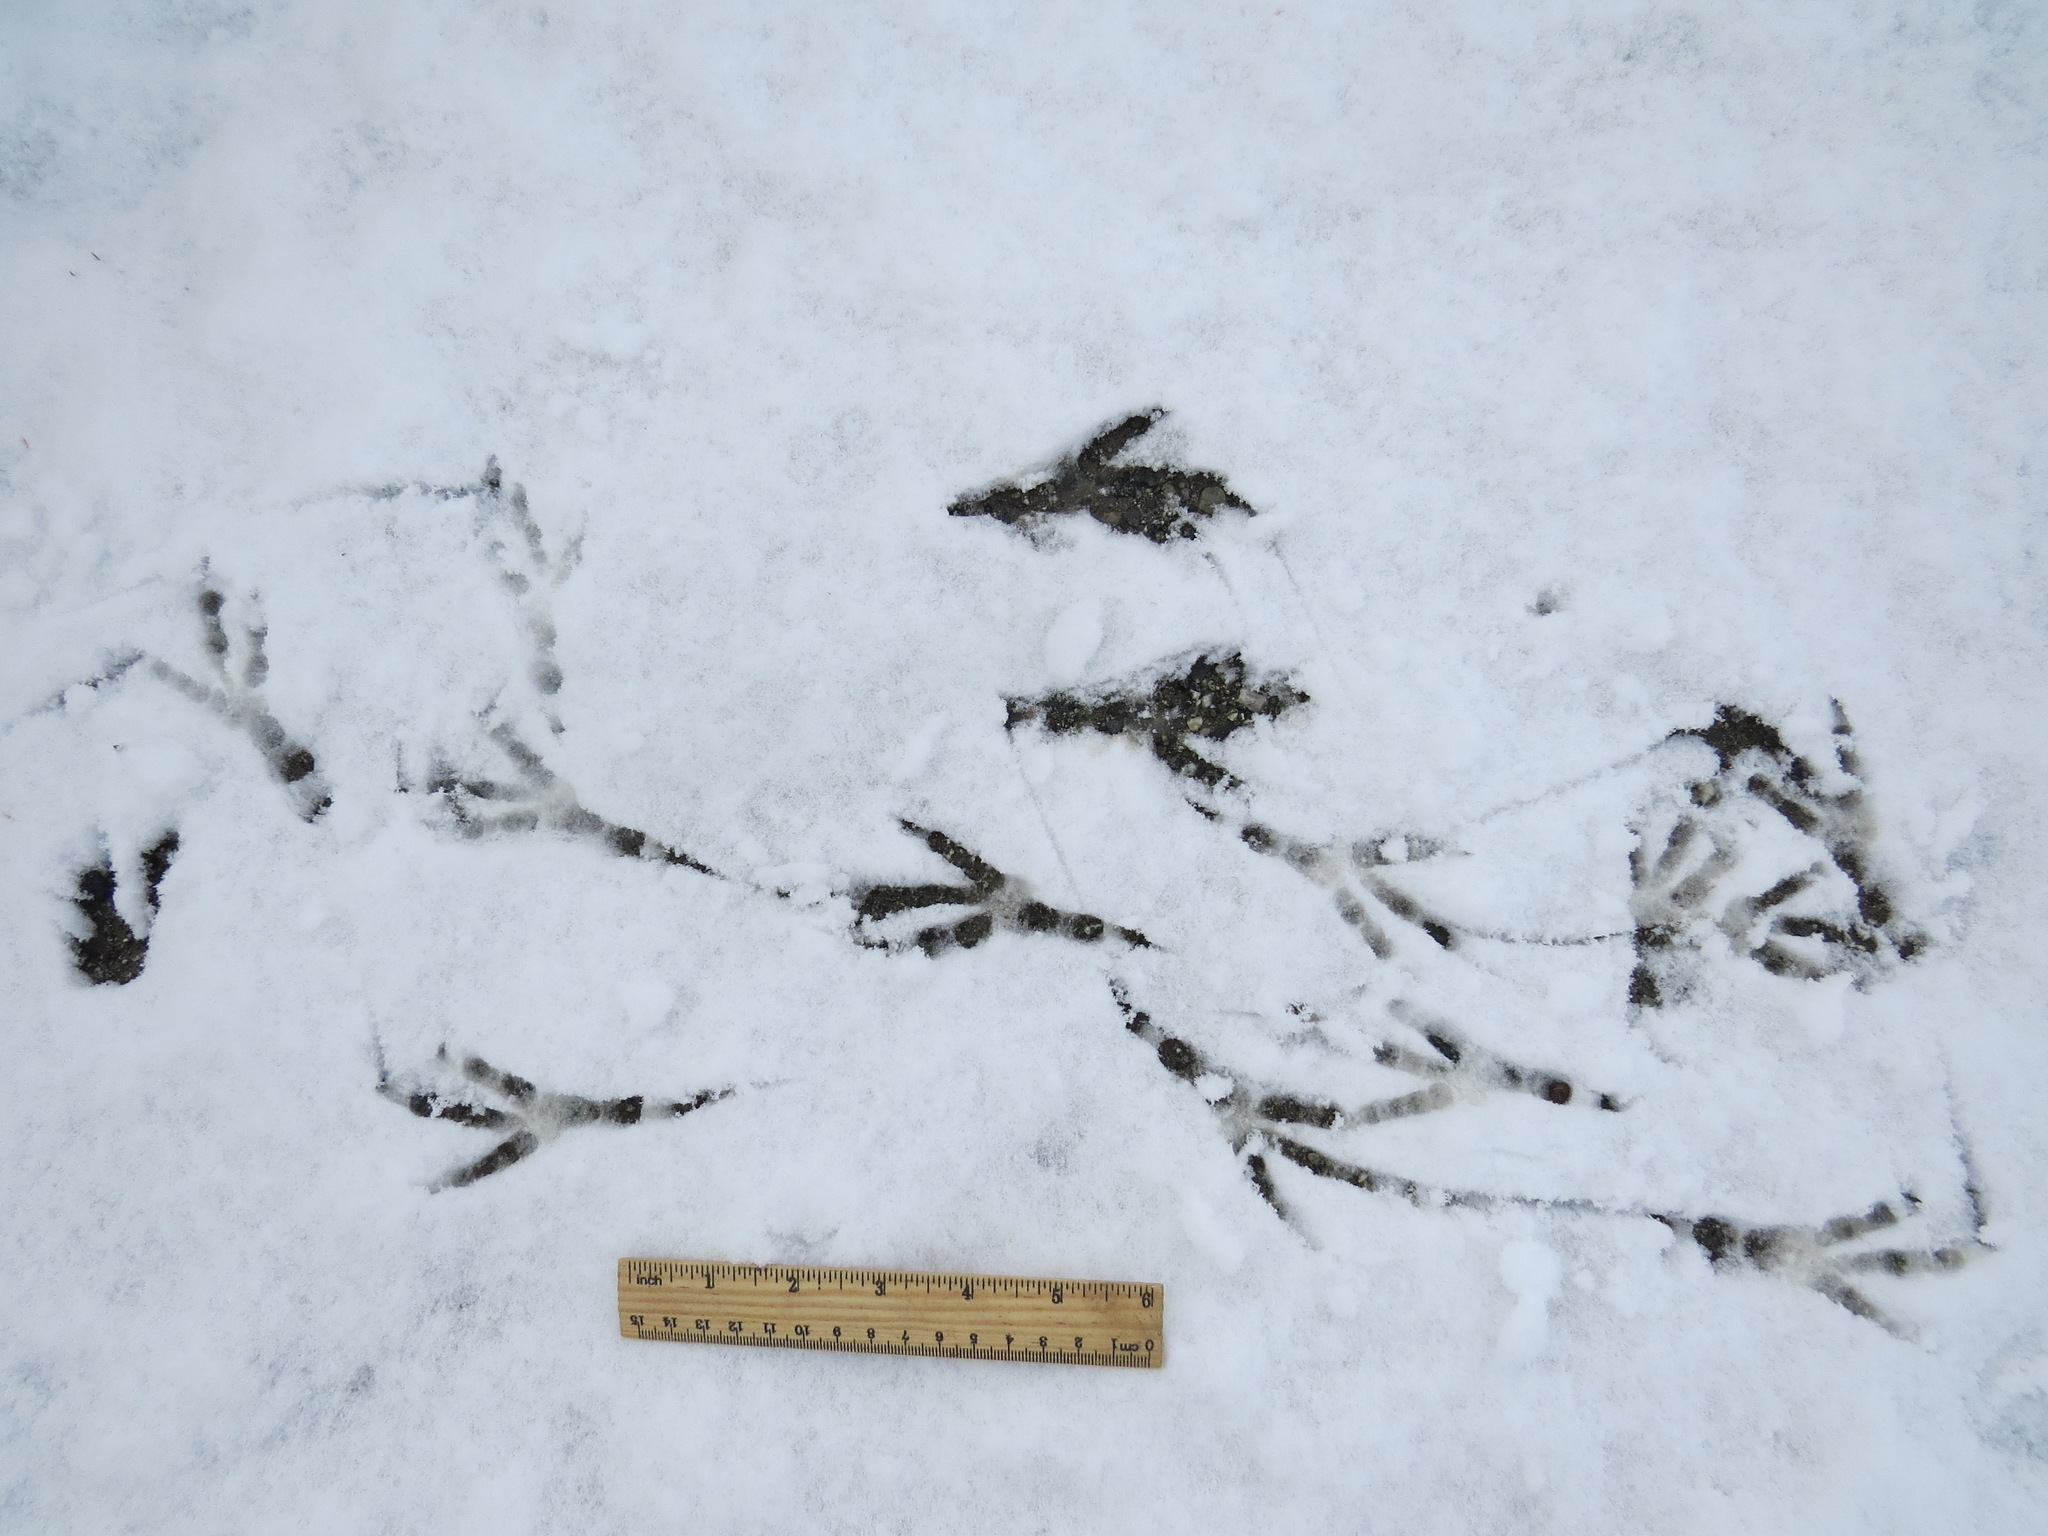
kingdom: Animalia
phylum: Chordata
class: Aves
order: Passeriformes
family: Corvidae
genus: Corvus
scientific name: Corvus corax
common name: Common raven
